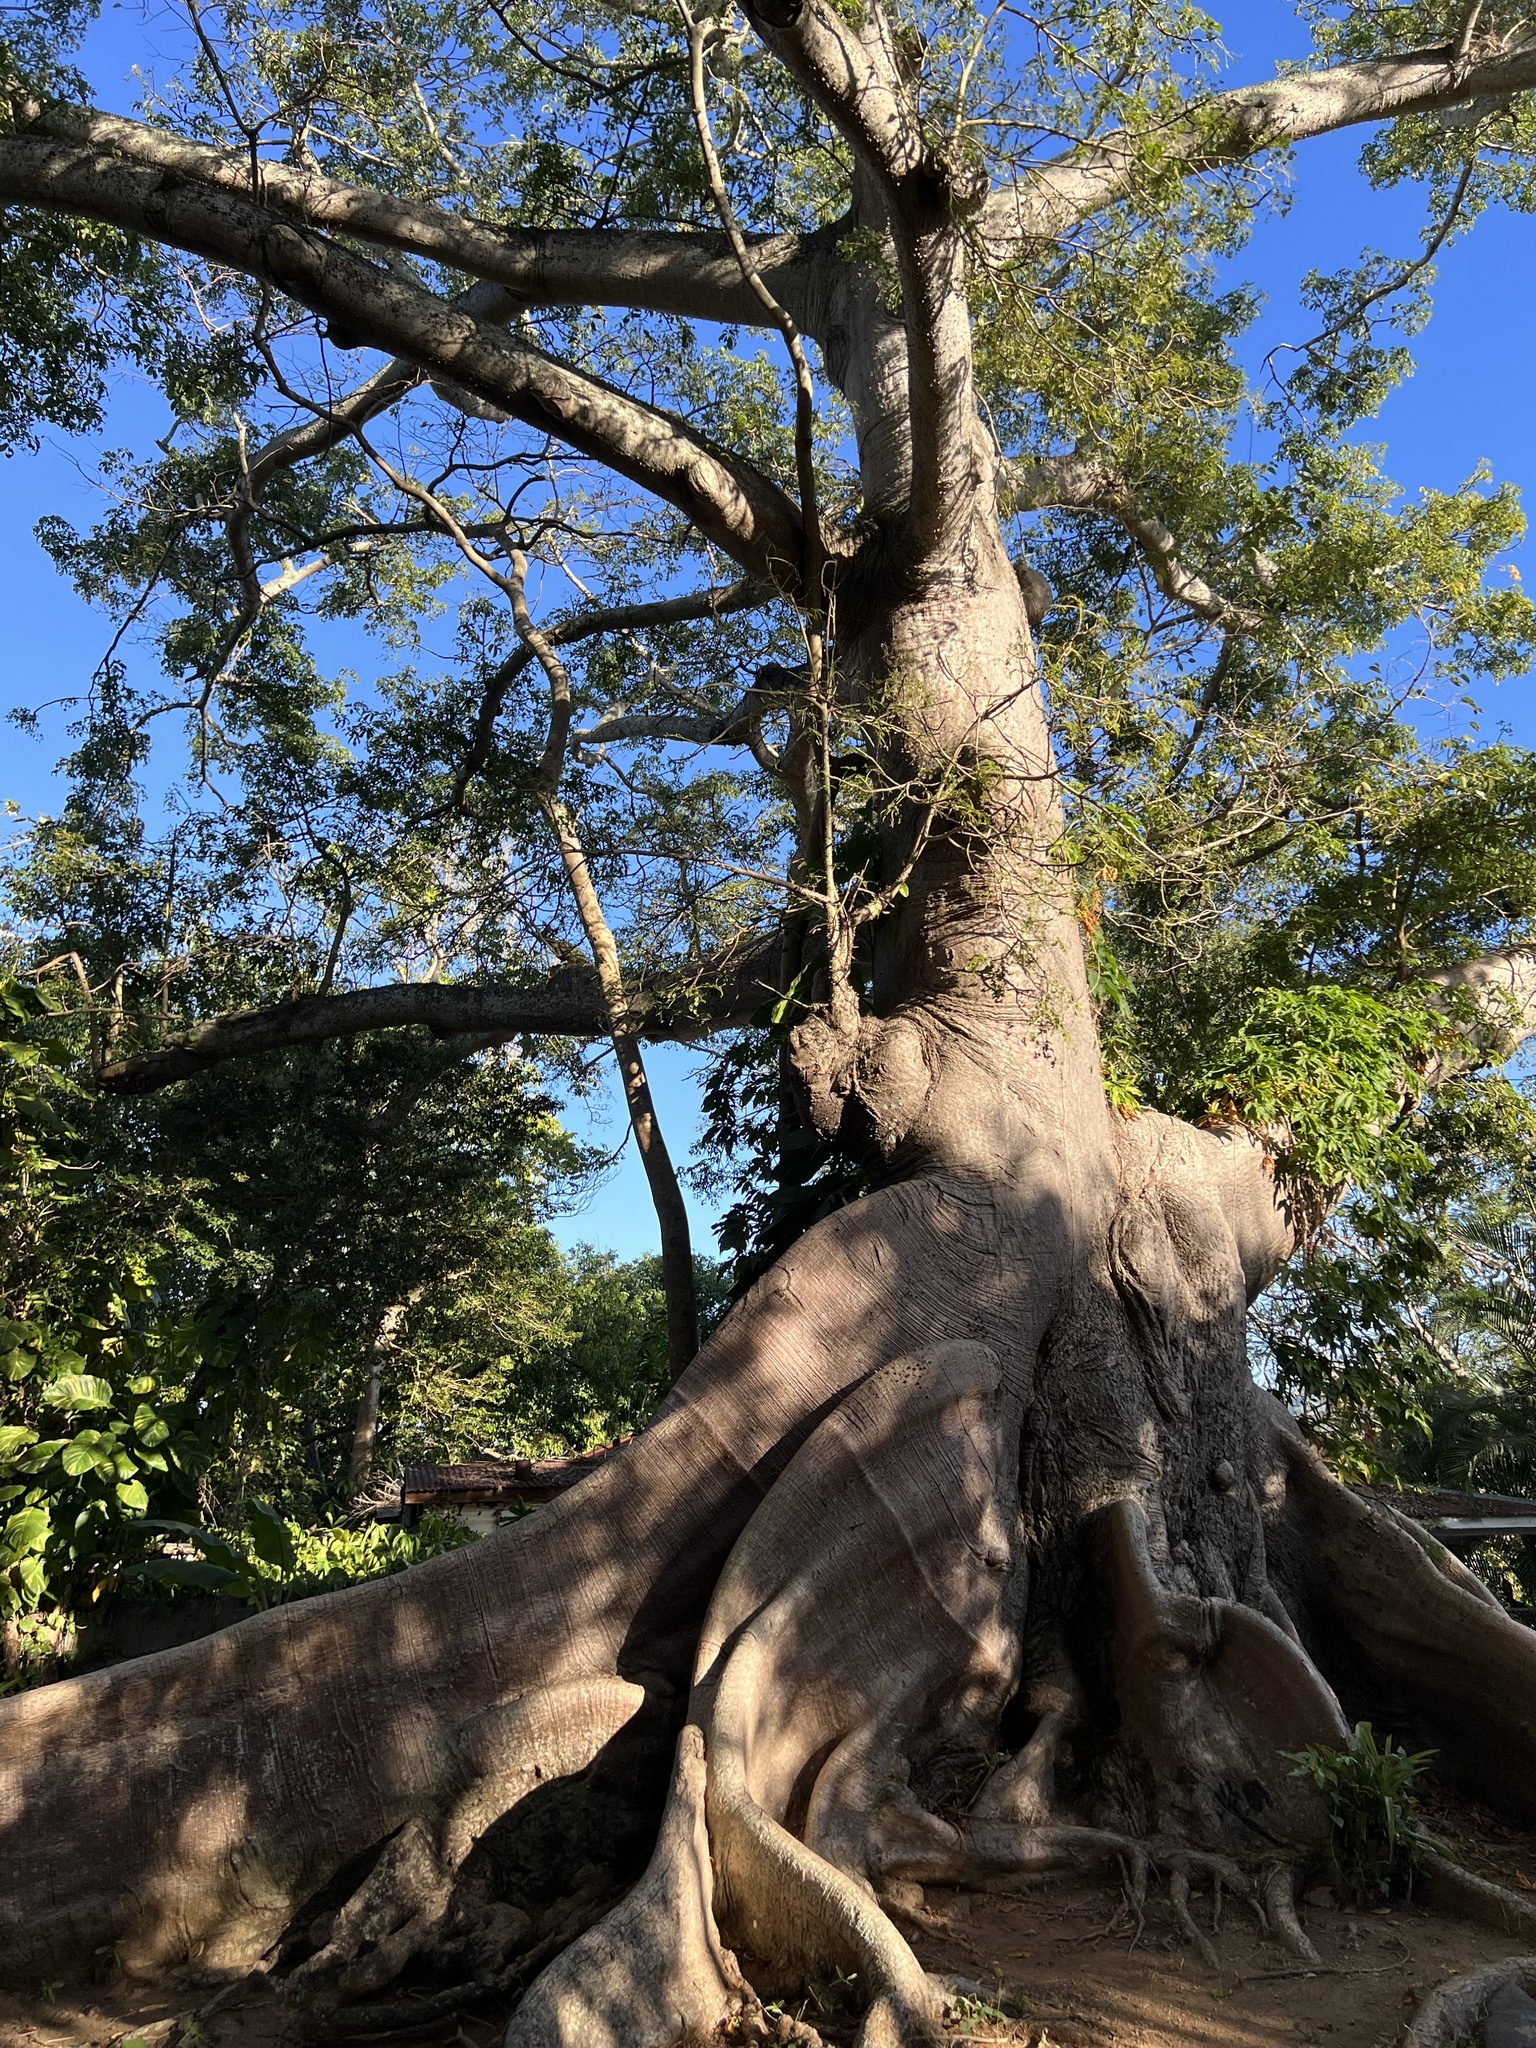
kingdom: Plantae
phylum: Tracheophyta
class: Magnoliopsida
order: Malvales
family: Malvaceae
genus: Ceiba
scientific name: Ceiba pentandra
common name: Kapok
